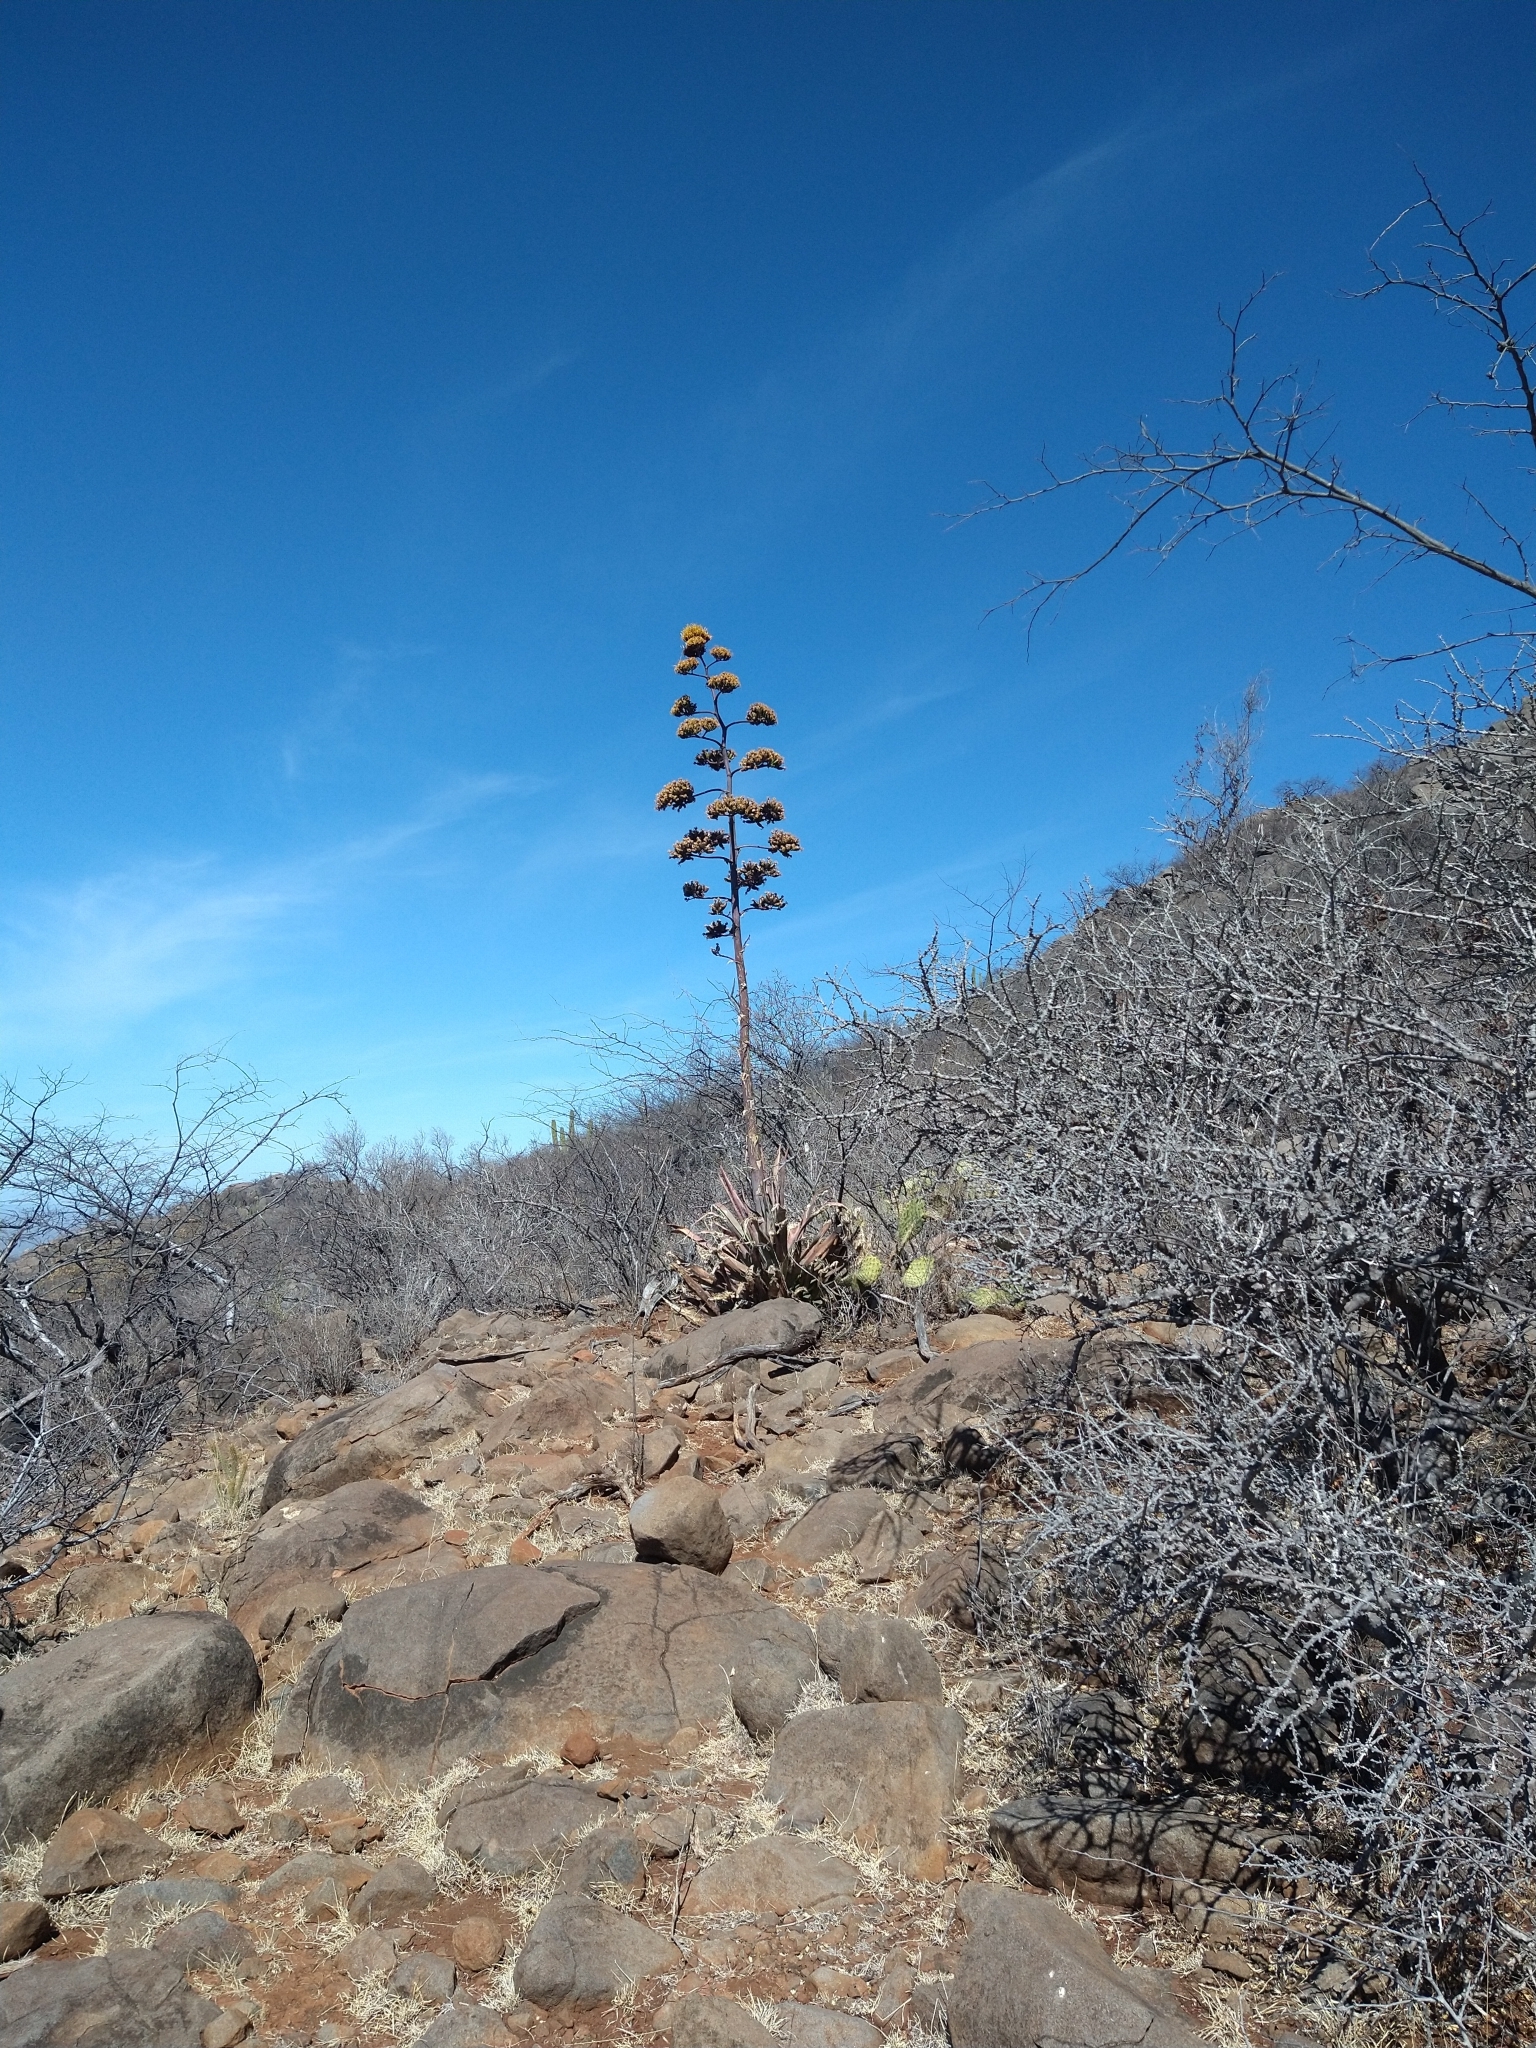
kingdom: Plantae
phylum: Tracheophyta
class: Liliopsida
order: Asparagales
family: Asparagaceae
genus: Agave
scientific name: Agave aurea
